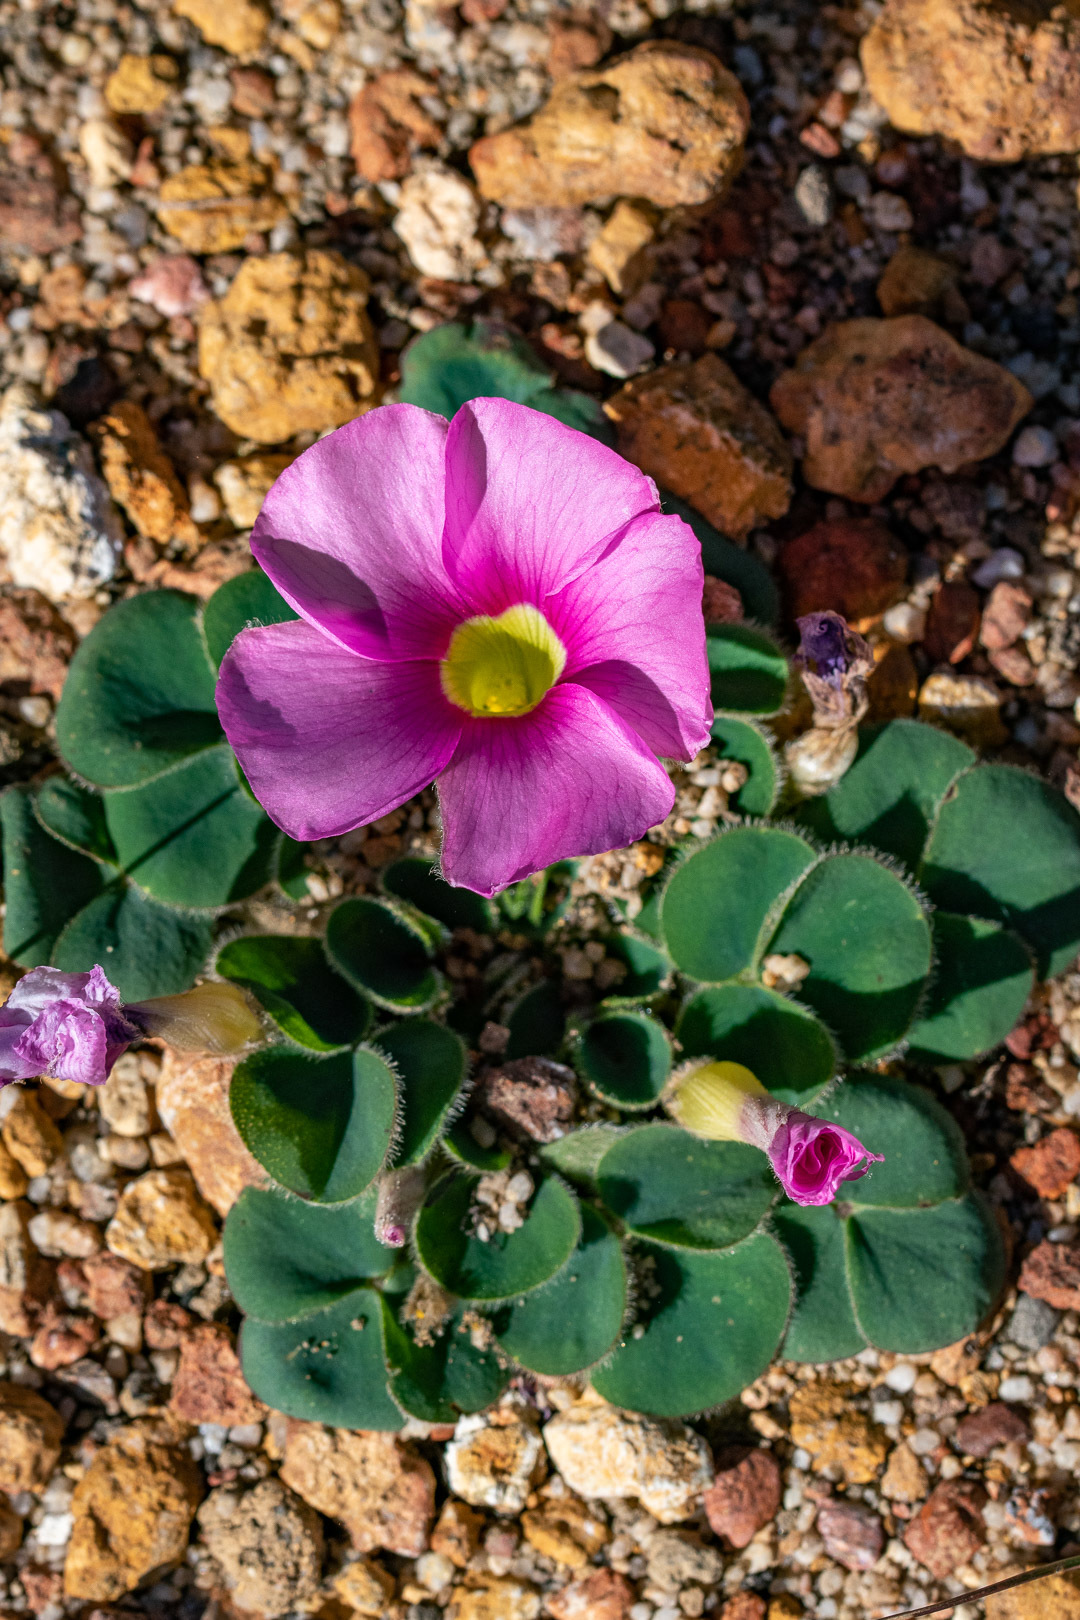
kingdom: Plantae
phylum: Tracheophyta
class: Magnoliopsida
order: Oxalidales
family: Oxalidaceae
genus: Oxalis
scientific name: Oxalis purpurea
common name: Purple woodsorrel
